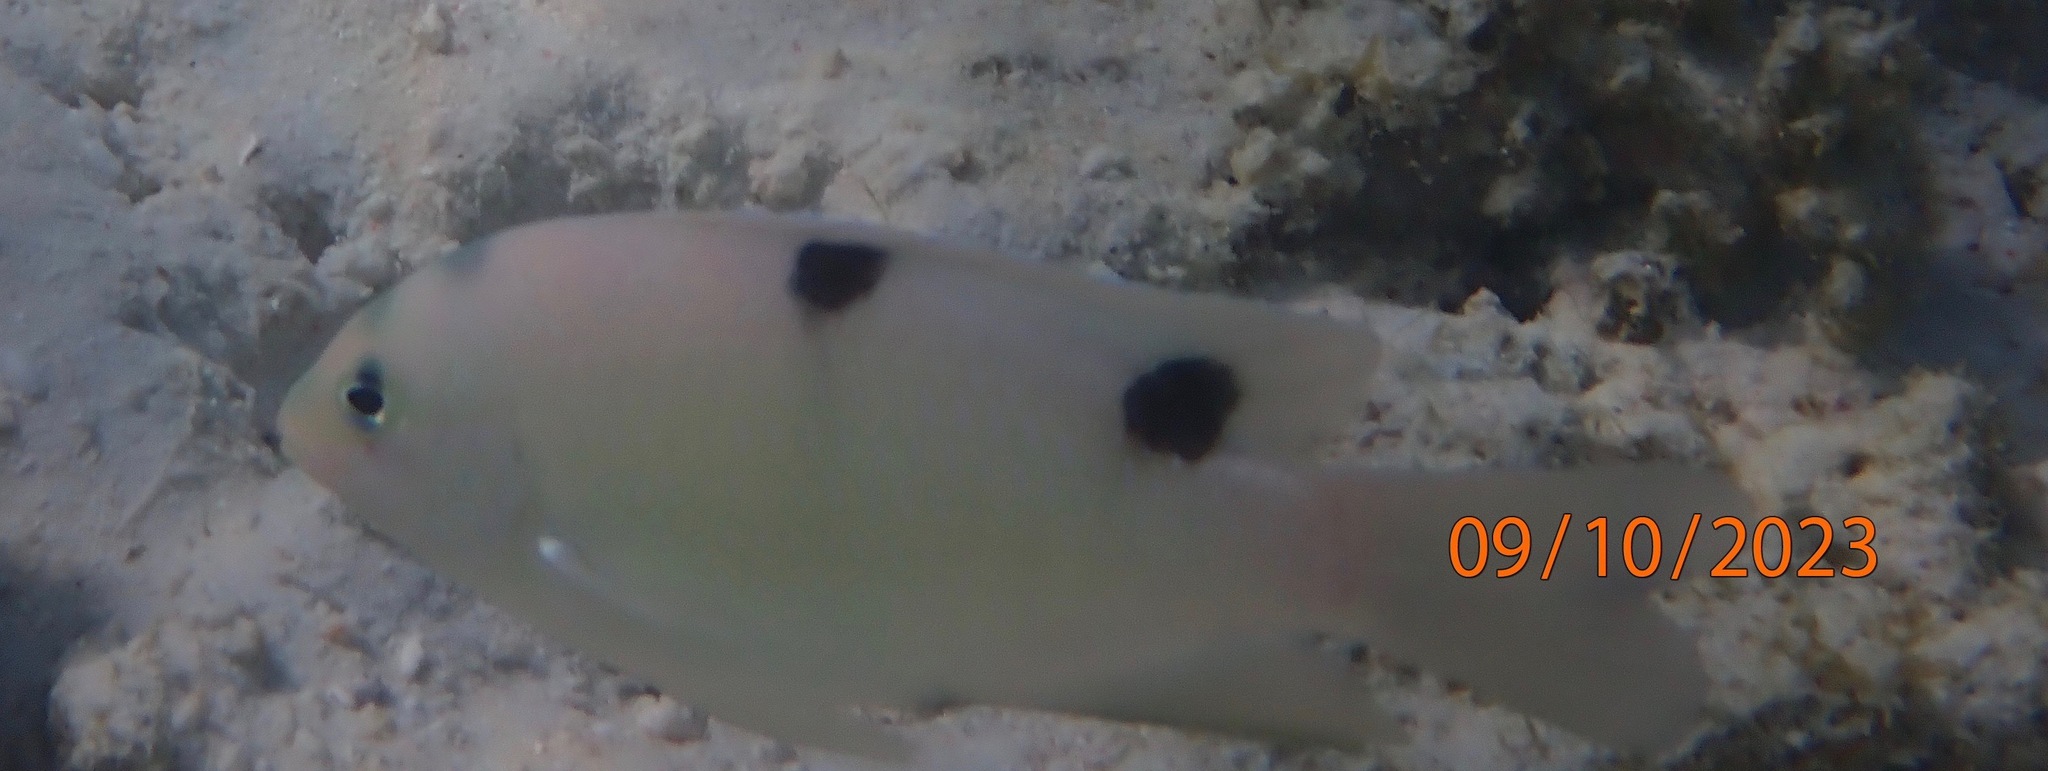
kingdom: Animalia
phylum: Chordata
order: Perciformes
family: Pomacentridae
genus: Dischistodus
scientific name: Dischistodus perspicillatus
